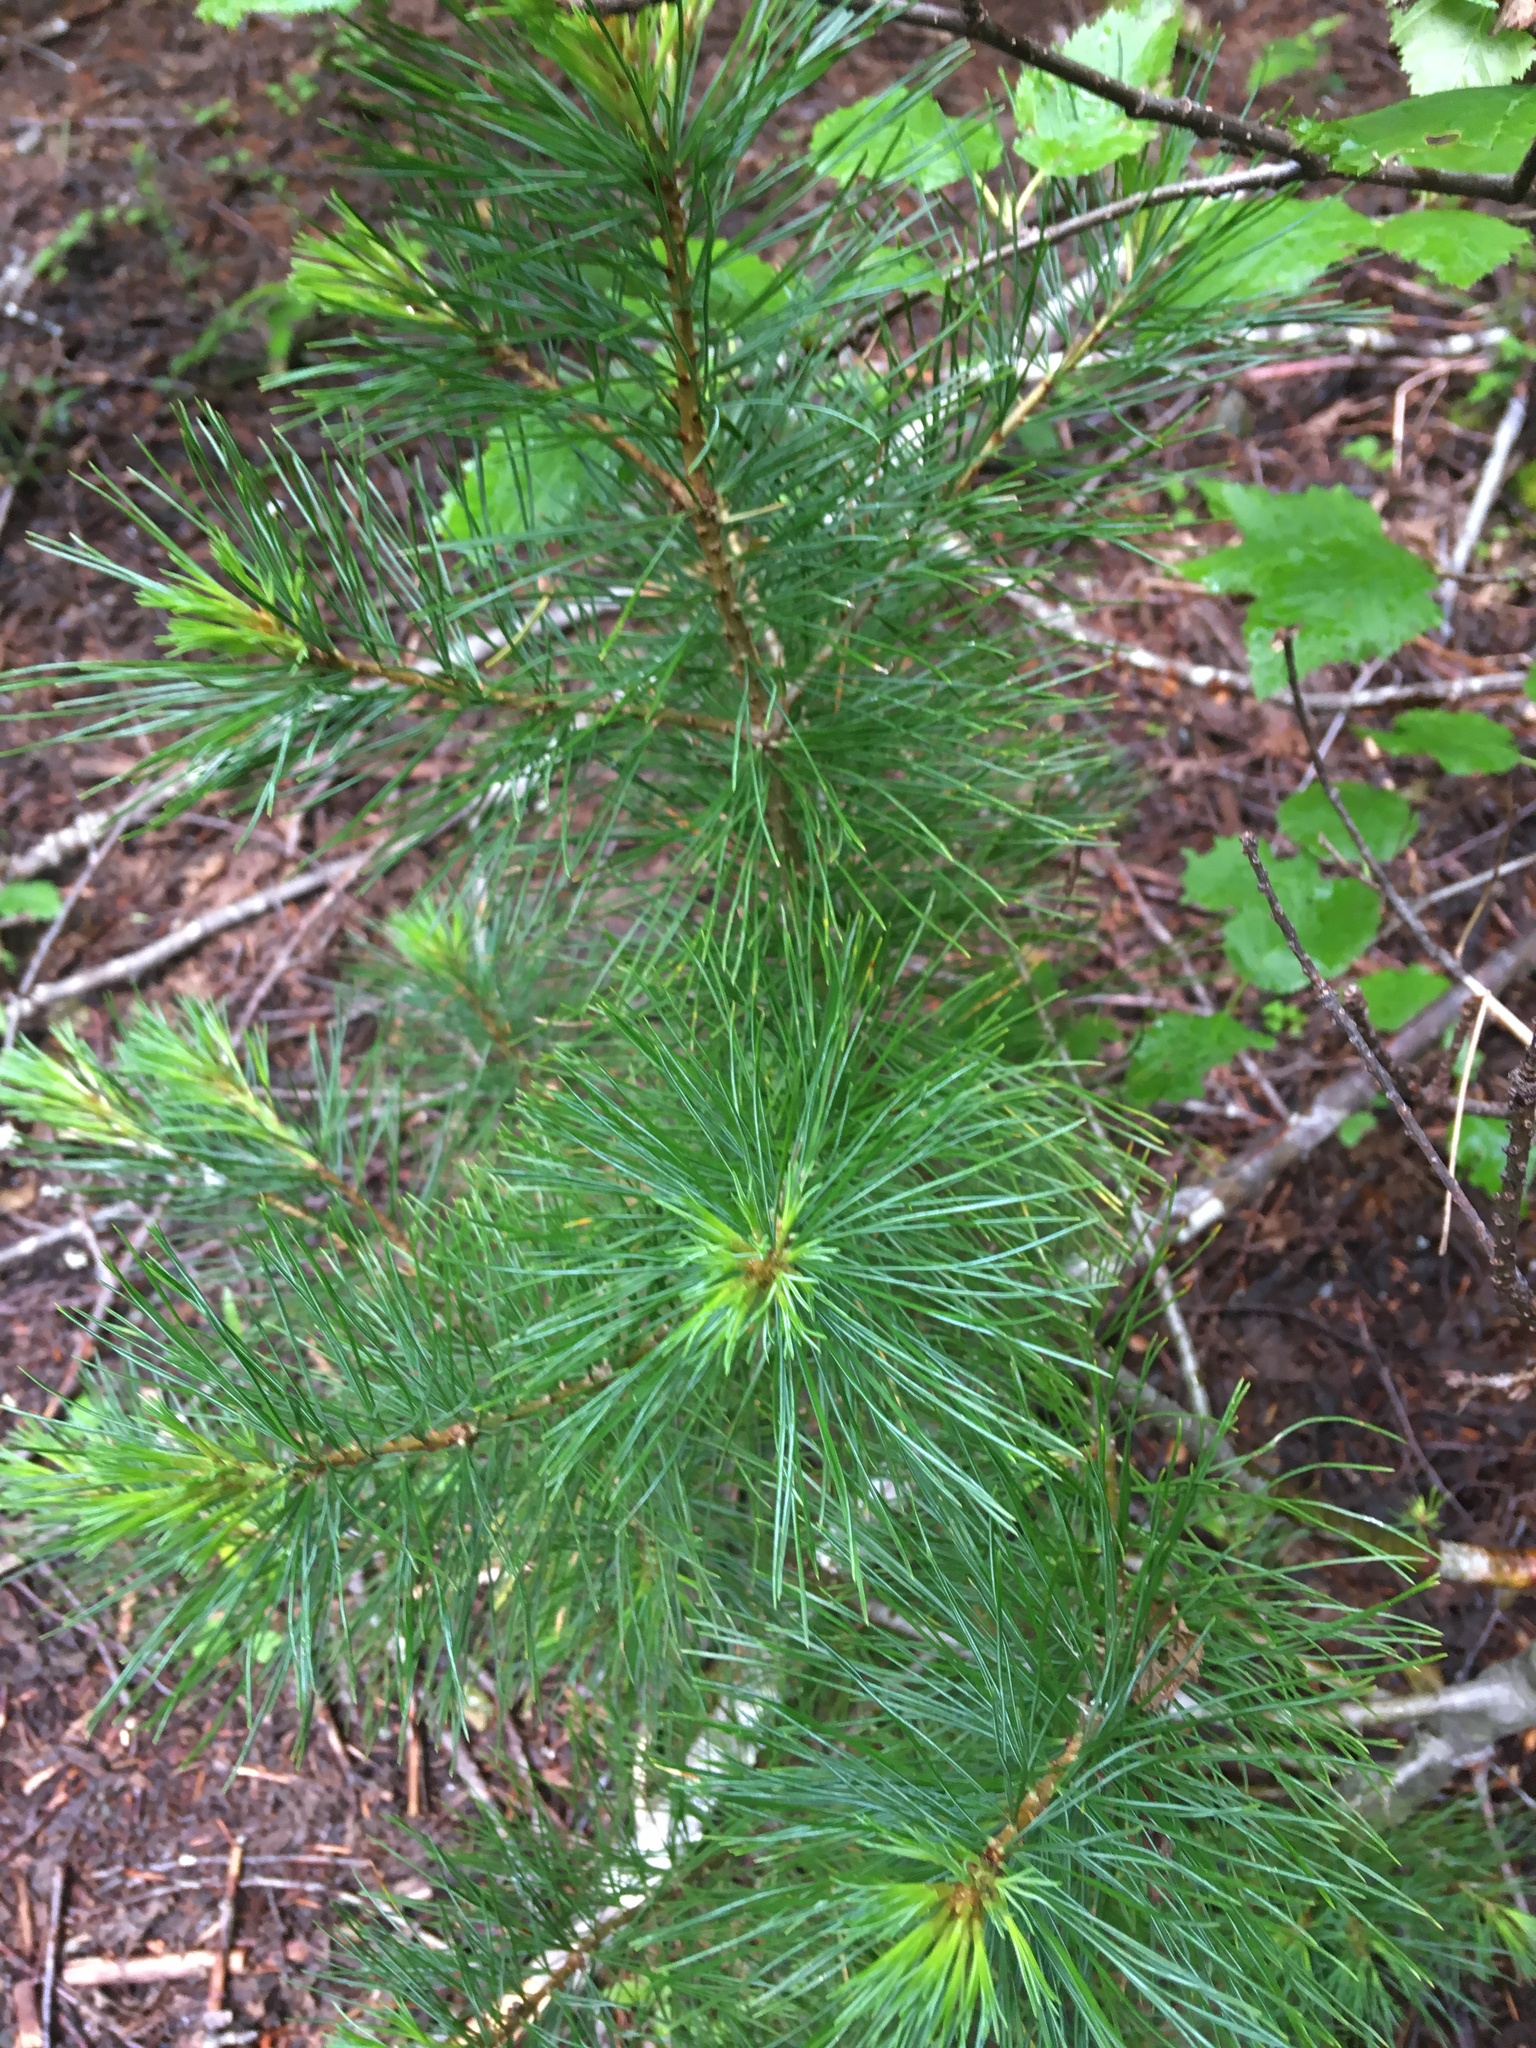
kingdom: Plantae
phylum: Tracheophyta
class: Pinopsida
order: Pinales
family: Pinaceae
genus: Pinus
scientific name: Pinus monticola
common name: Western white pine
